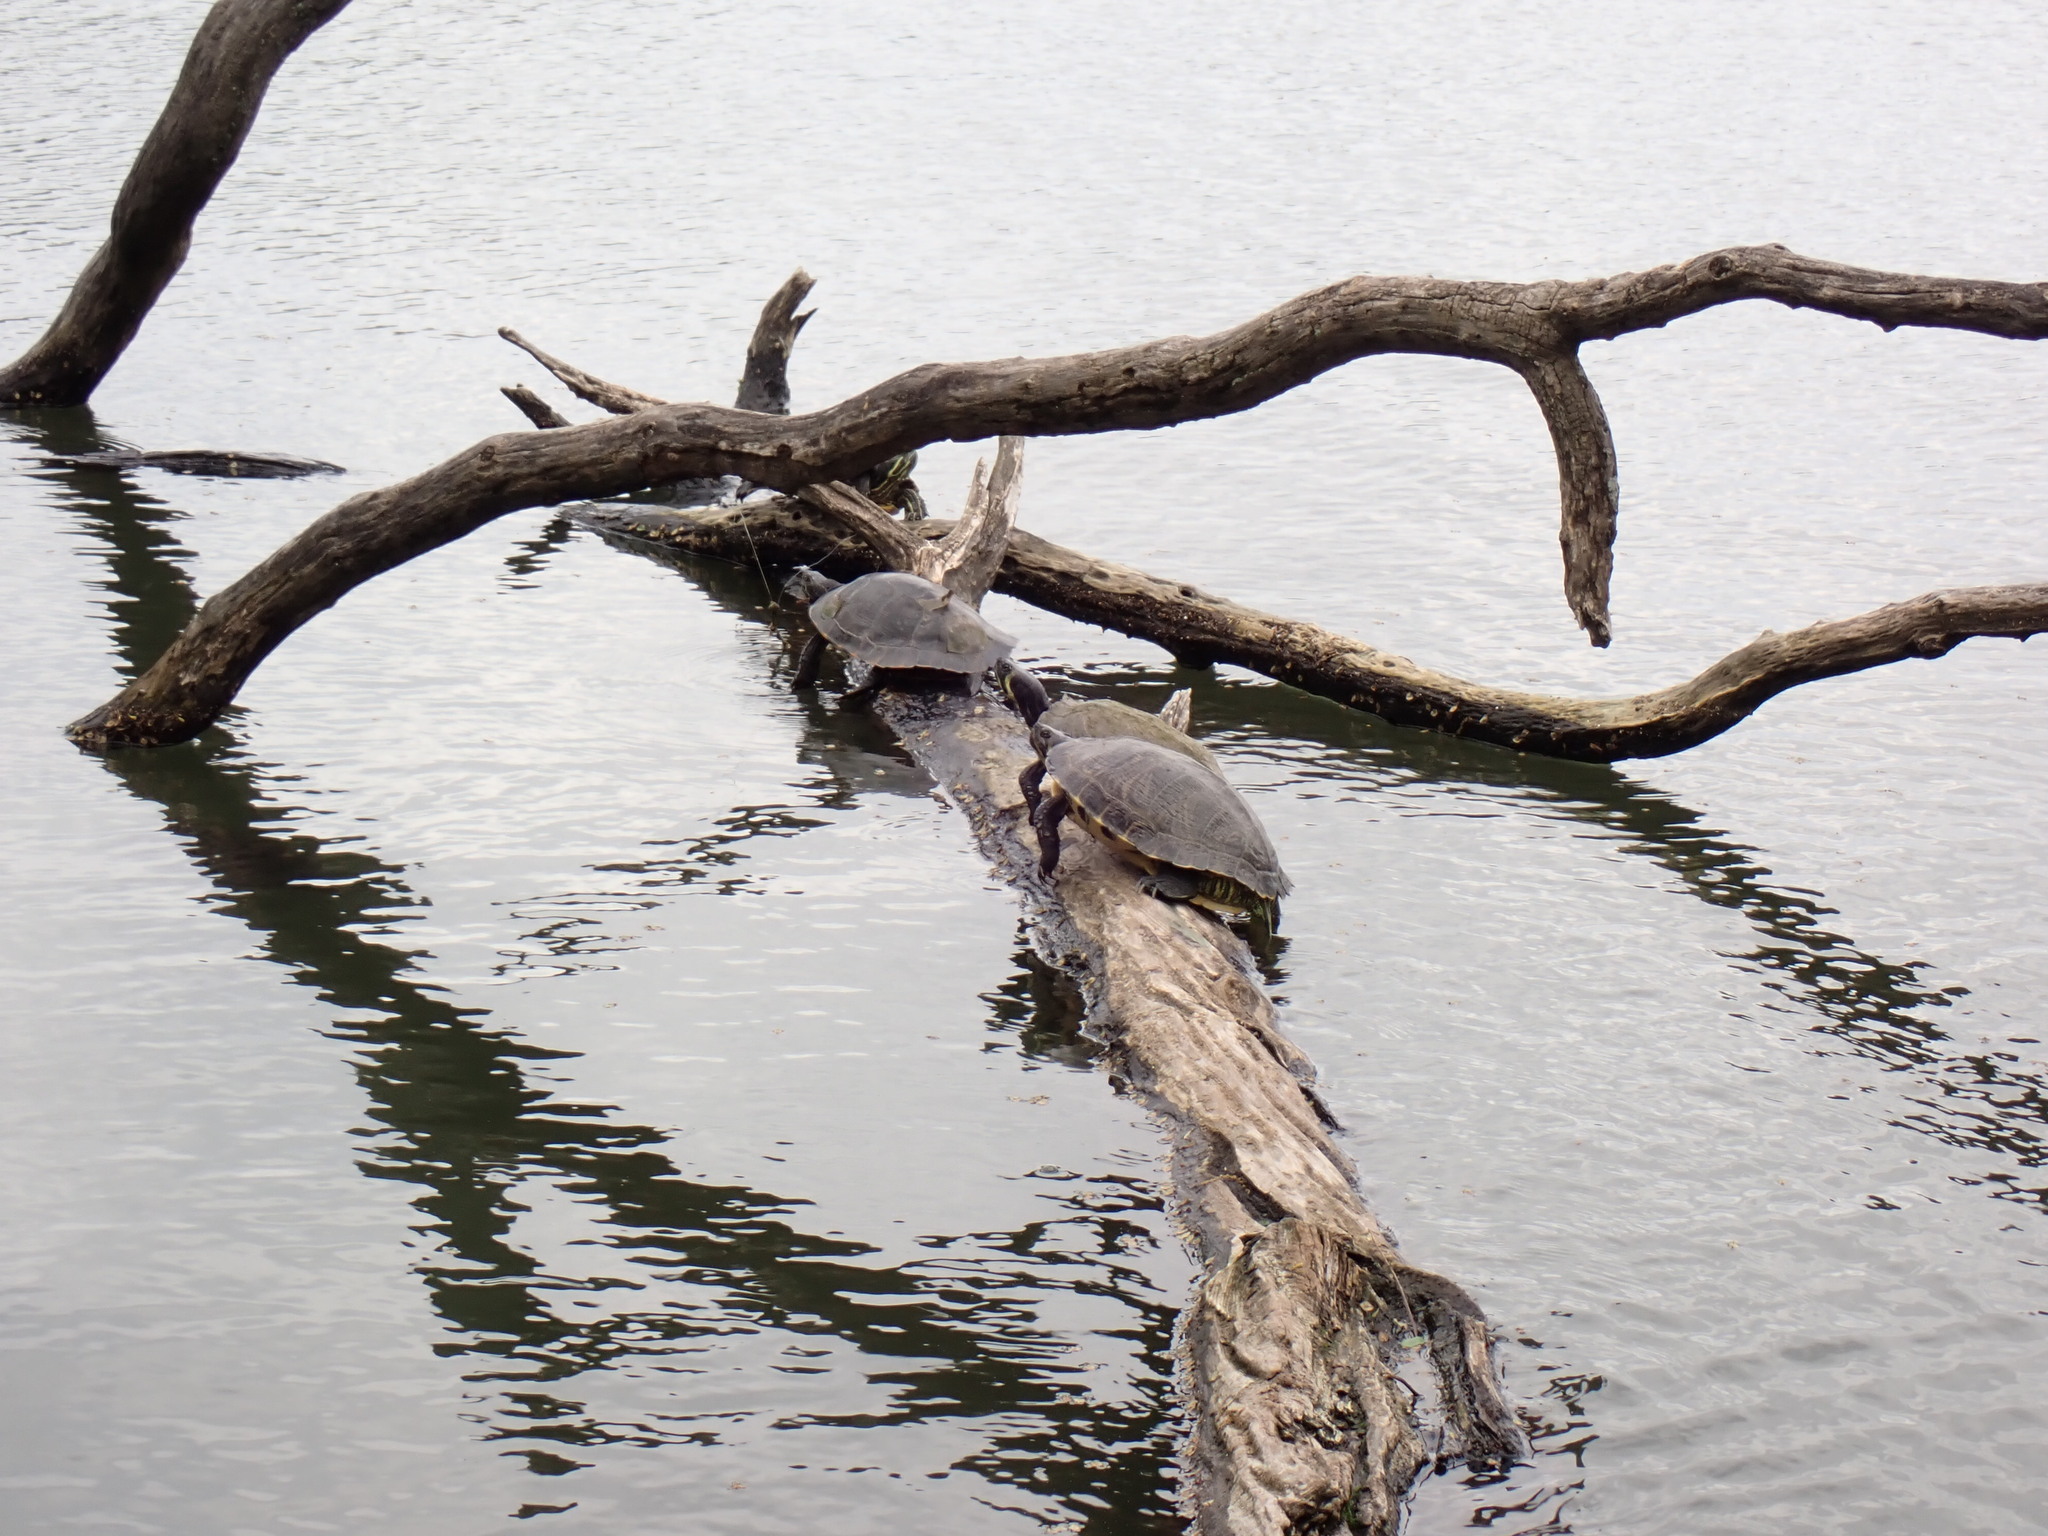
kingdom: Animalia
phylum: Chordata
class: Testudines
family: Emydidae
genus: Trachemys
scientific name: Trachemys scripta
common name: Slider
